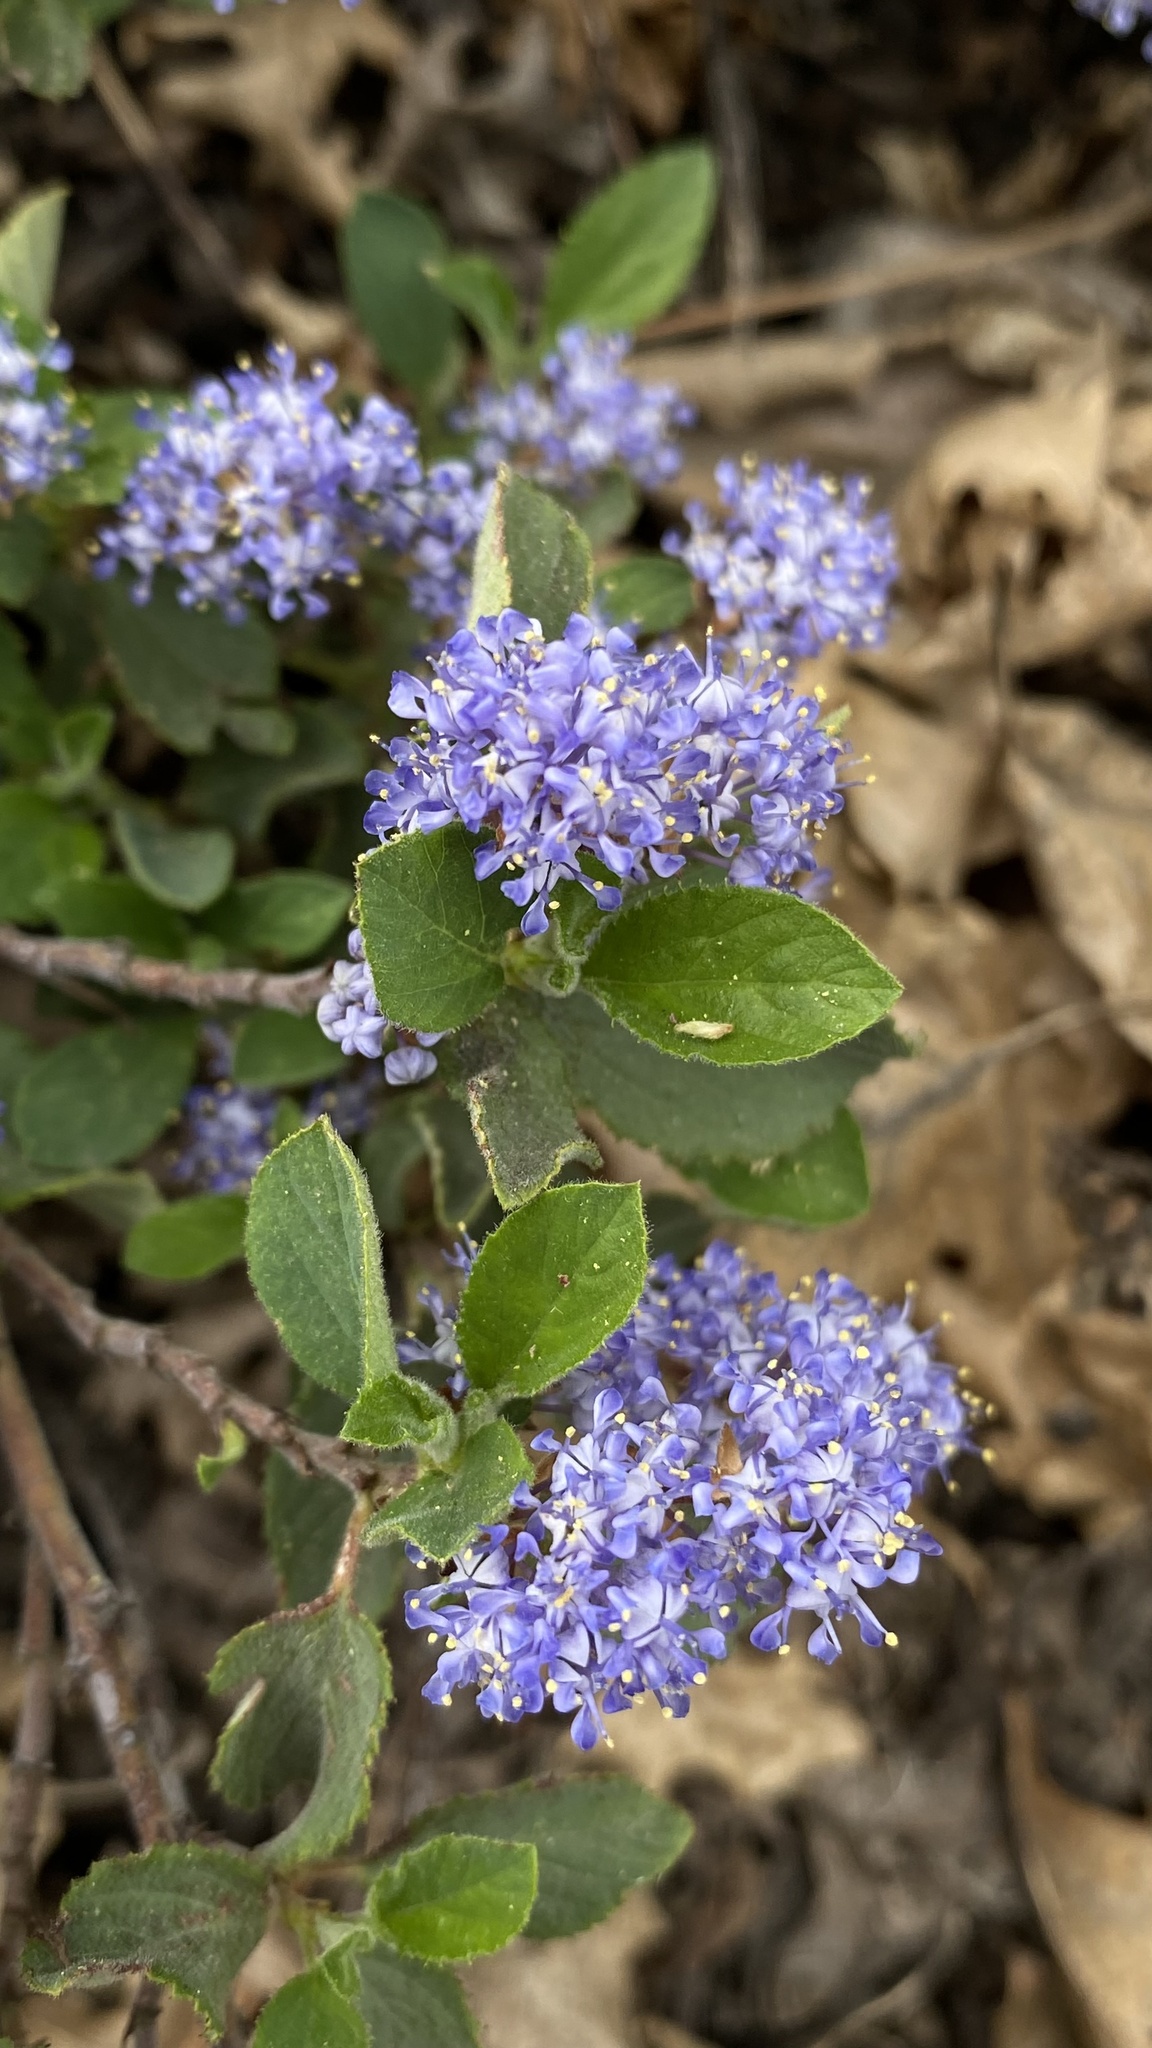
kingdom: Plantae
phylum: Tracheophyta
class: Magnoliopsida
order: Rosales
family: Rhamnaceae
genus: Ceanothus
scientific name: Ceanothus diversifolius
